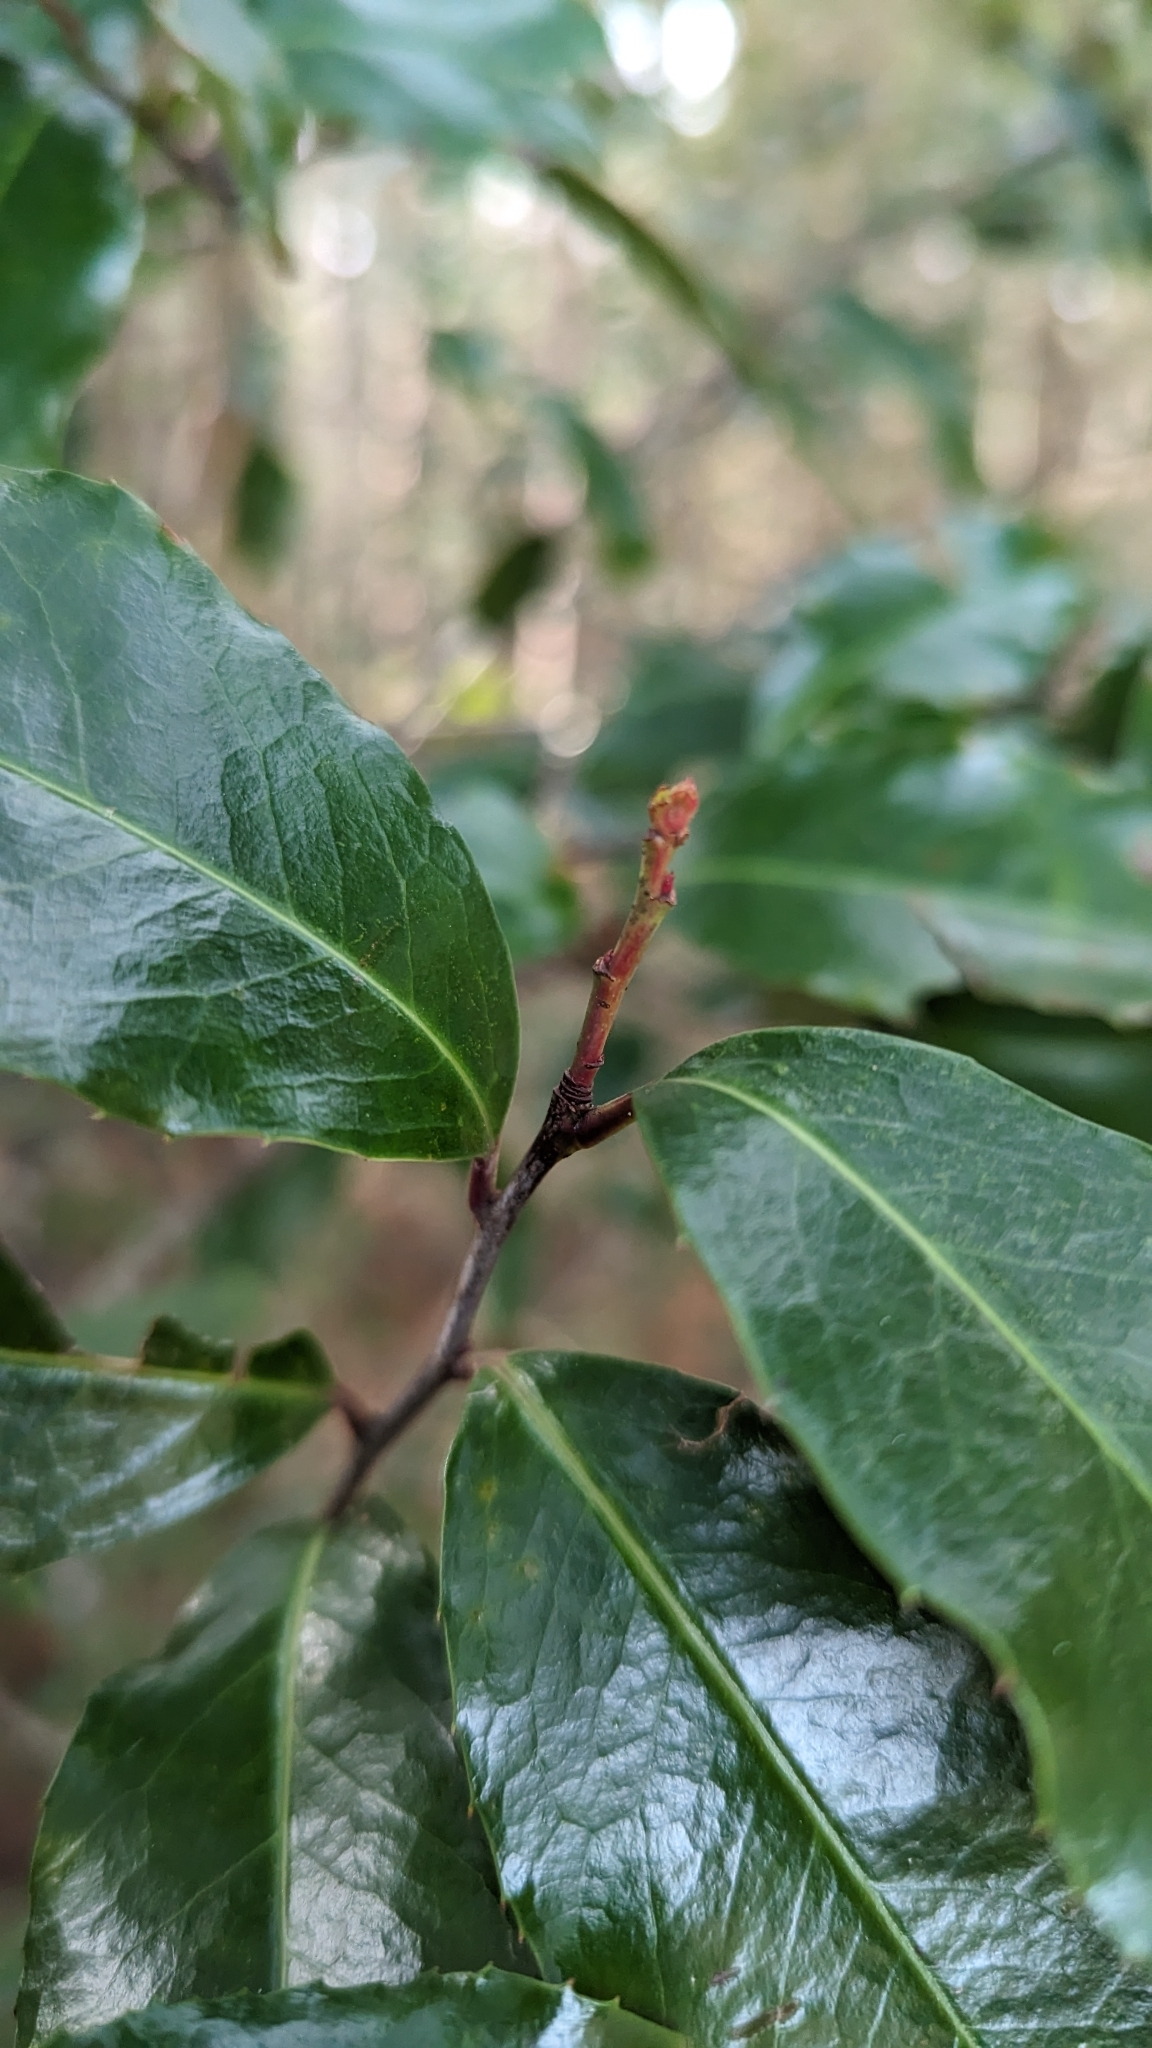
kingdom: Plantae
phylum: Tracheophyta
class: Magnoliopsida
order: Rosales
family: Rosaceae
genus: Prunus
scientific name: Prunus caroliniana
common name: Carolina laurel cherry
